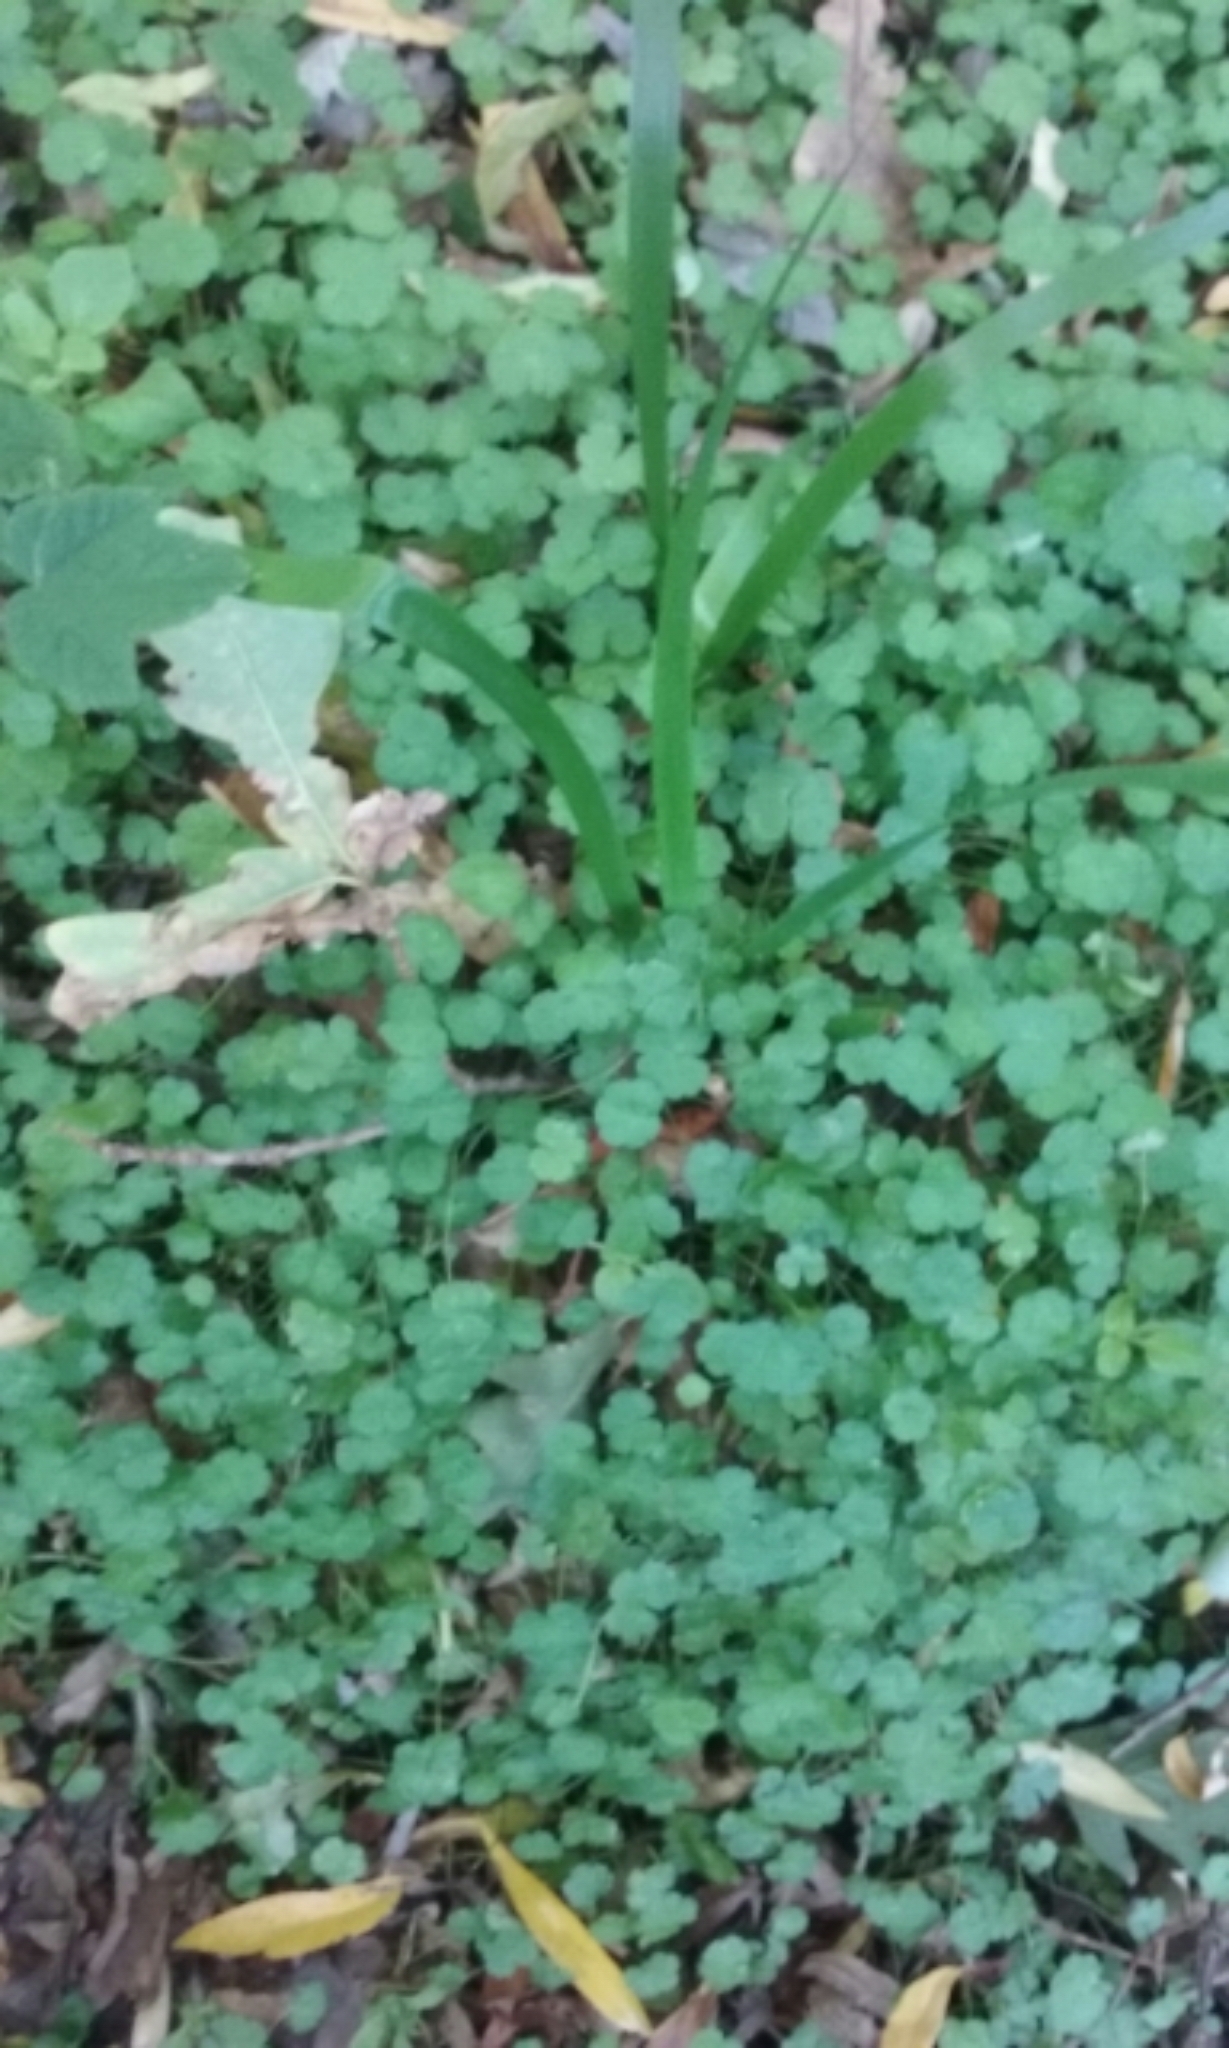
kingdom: Plantae
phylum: Tracheophyta
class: Magnoliopsida
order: Apiales
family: Araliaceae
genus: Hydrocotyle
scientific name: Hydrocotyle heteromeria
